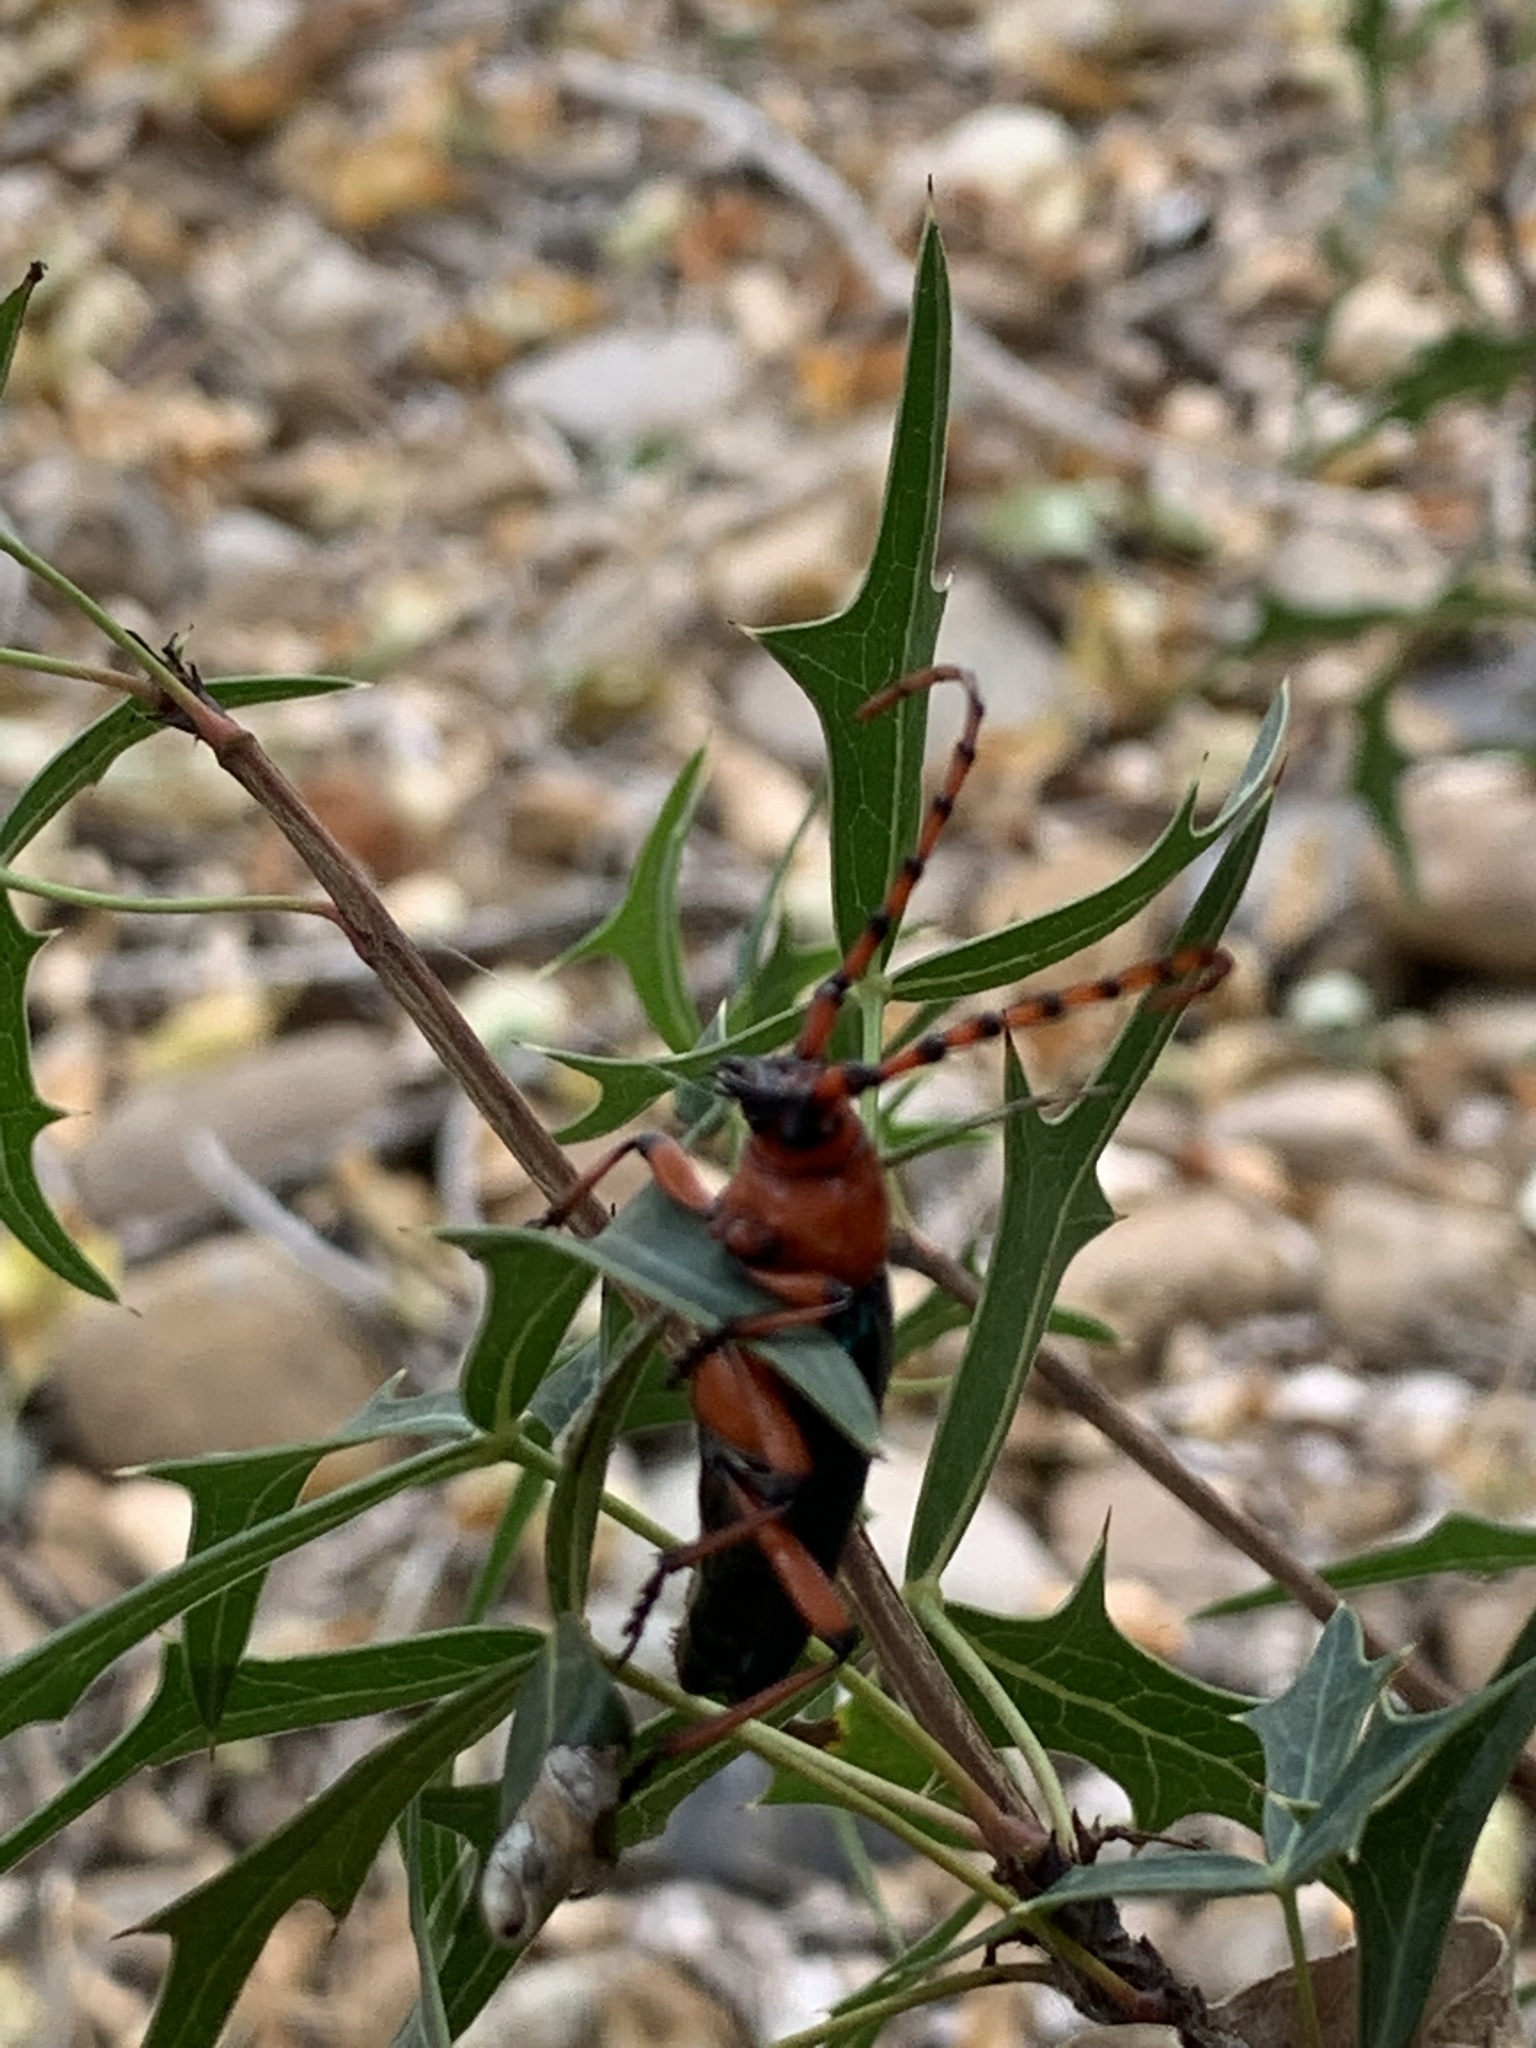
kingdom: Animalia
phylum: Arthropoda
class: Insecta
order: Coleoptera
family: Cerambycidae
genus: Stenaspis
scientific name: Stenaspis verticalis
